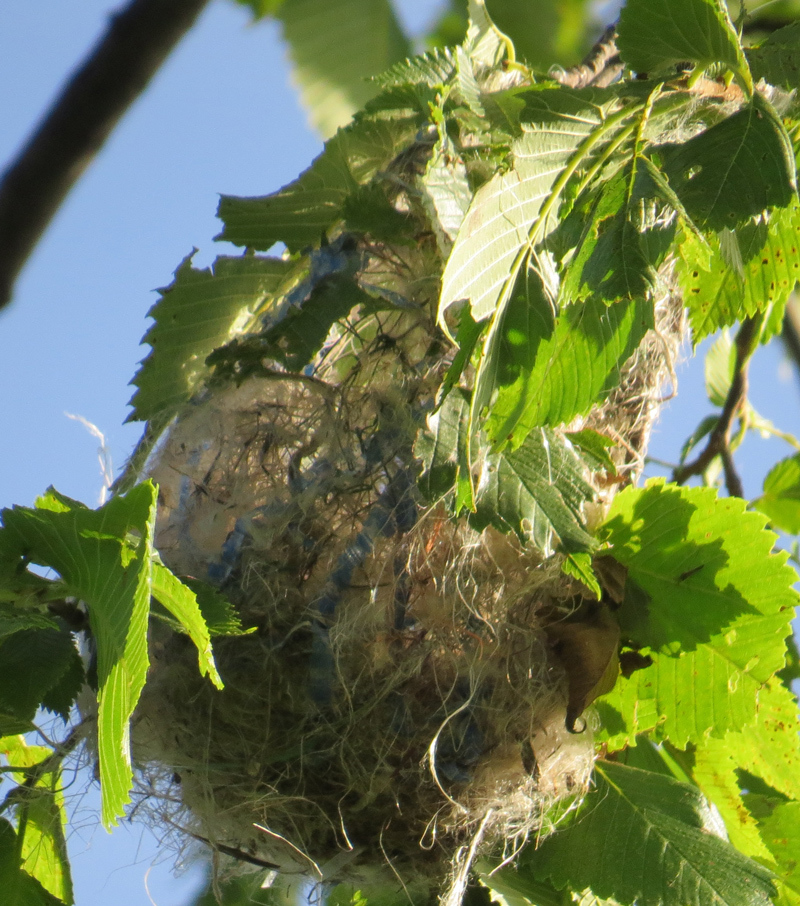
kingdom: Animalia
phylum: Chordata
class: Aves
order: Passeriformes
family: Icteridae
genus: Icterus
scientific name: Icterus galbula
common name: Baltimore oriole
